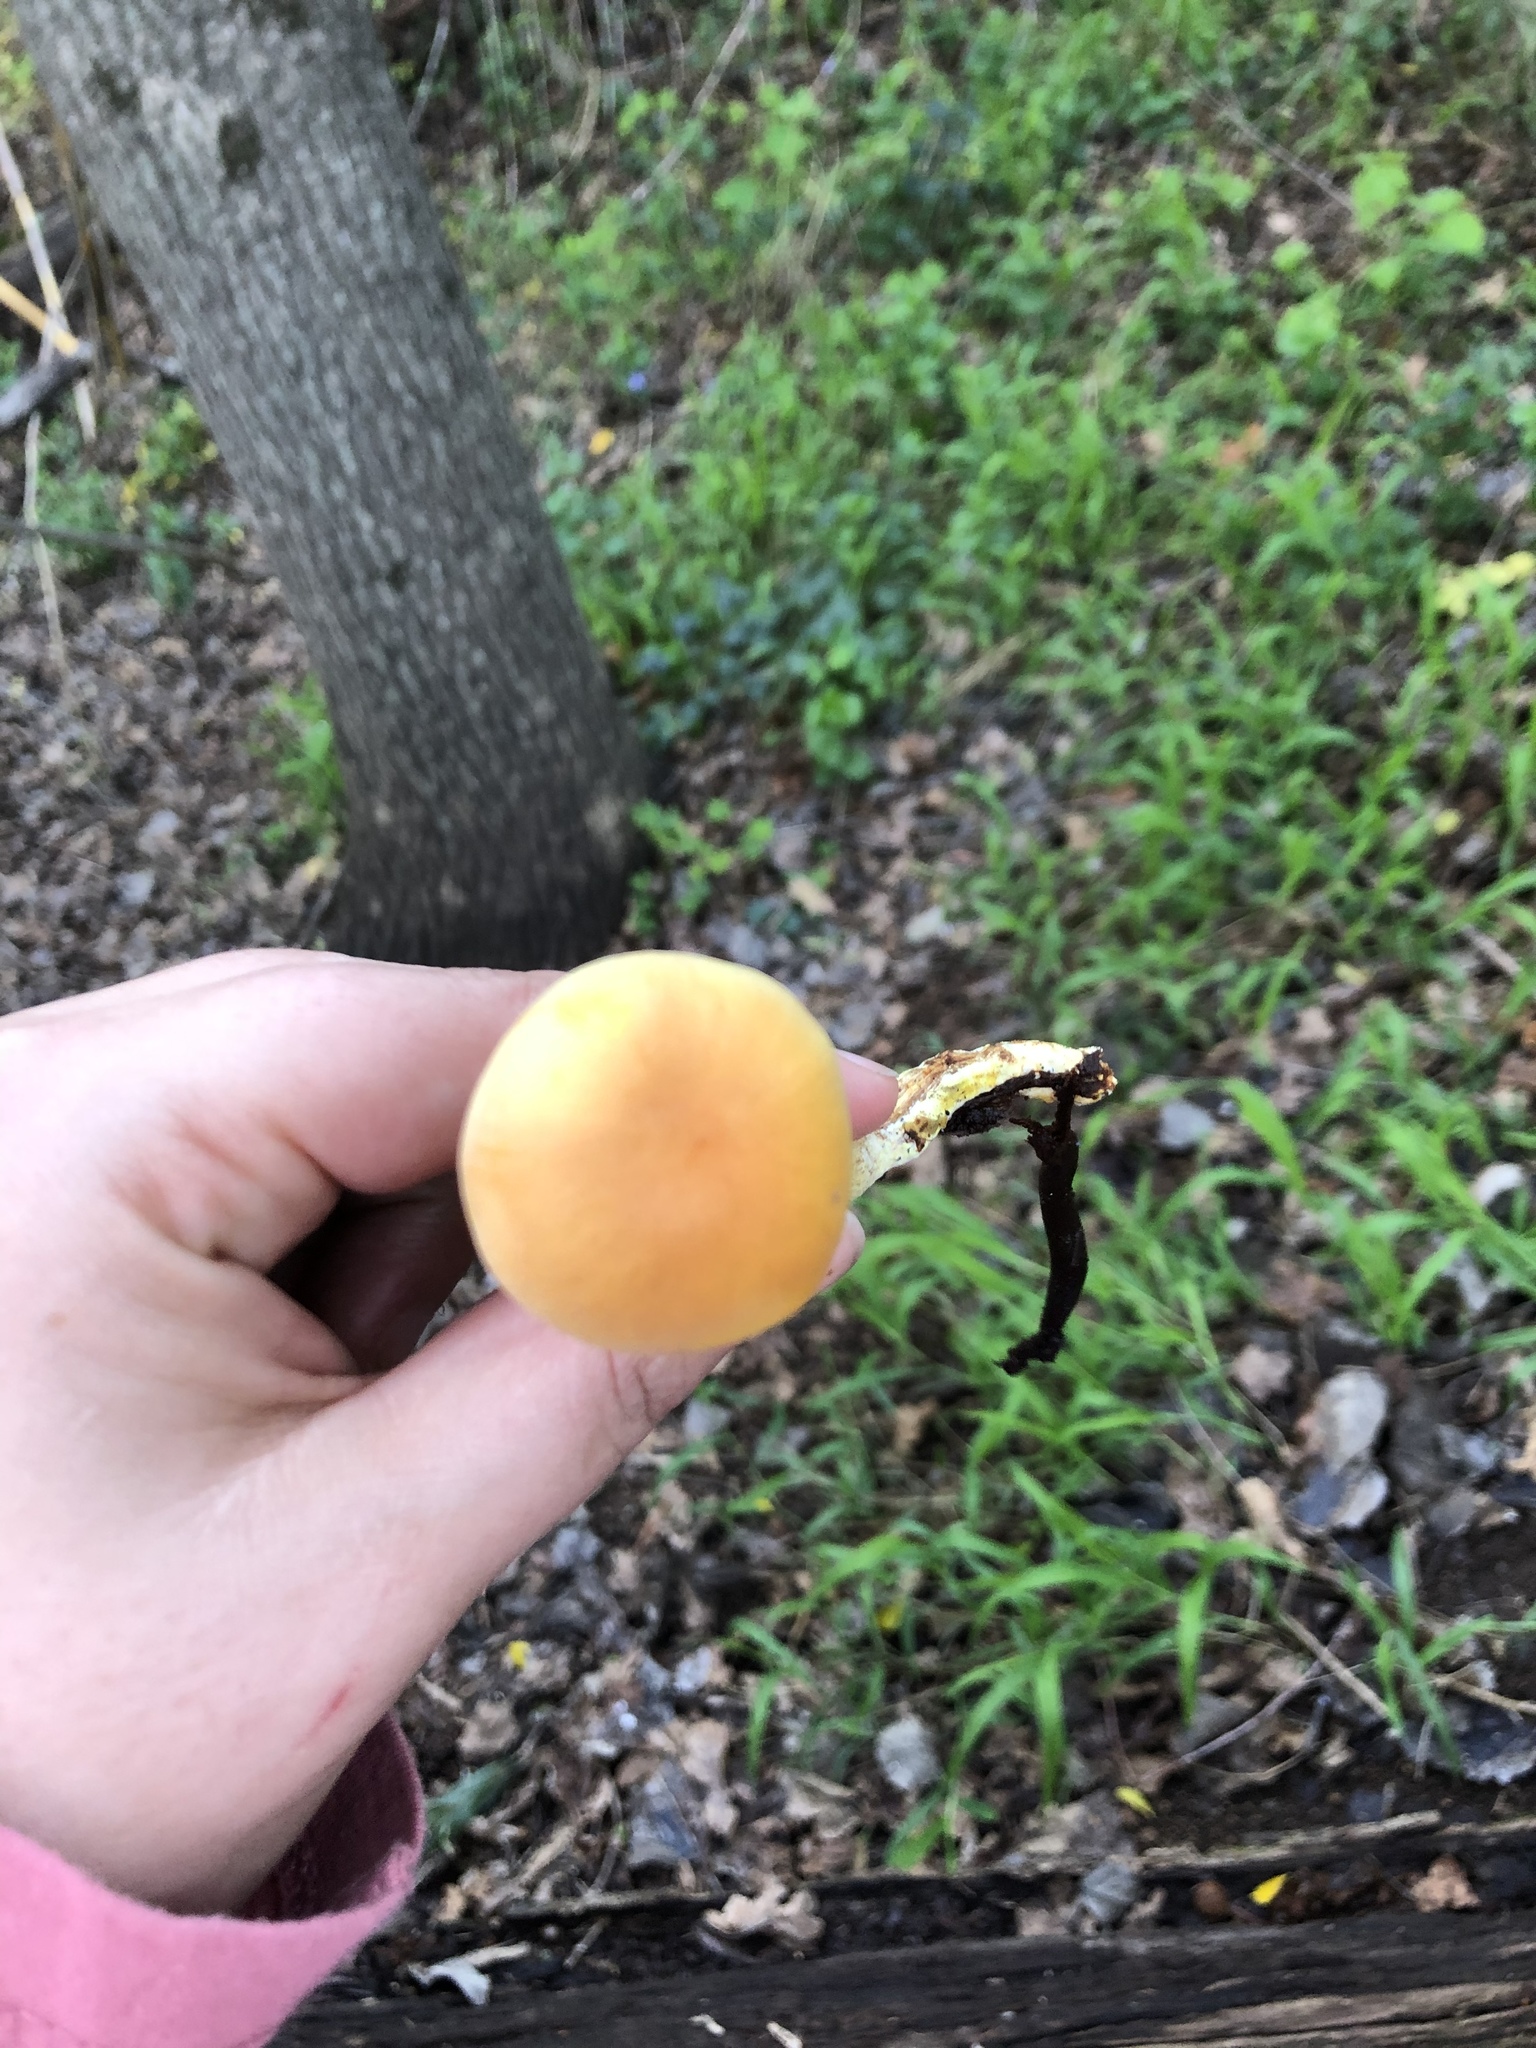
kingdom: Fungi
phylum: Basidiomycota
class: Agaricomycetes
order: Agaricales
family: Strophariaceae
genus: Hypholoma
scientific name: Hypholoma fasciculare
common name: Sulphur tuft
